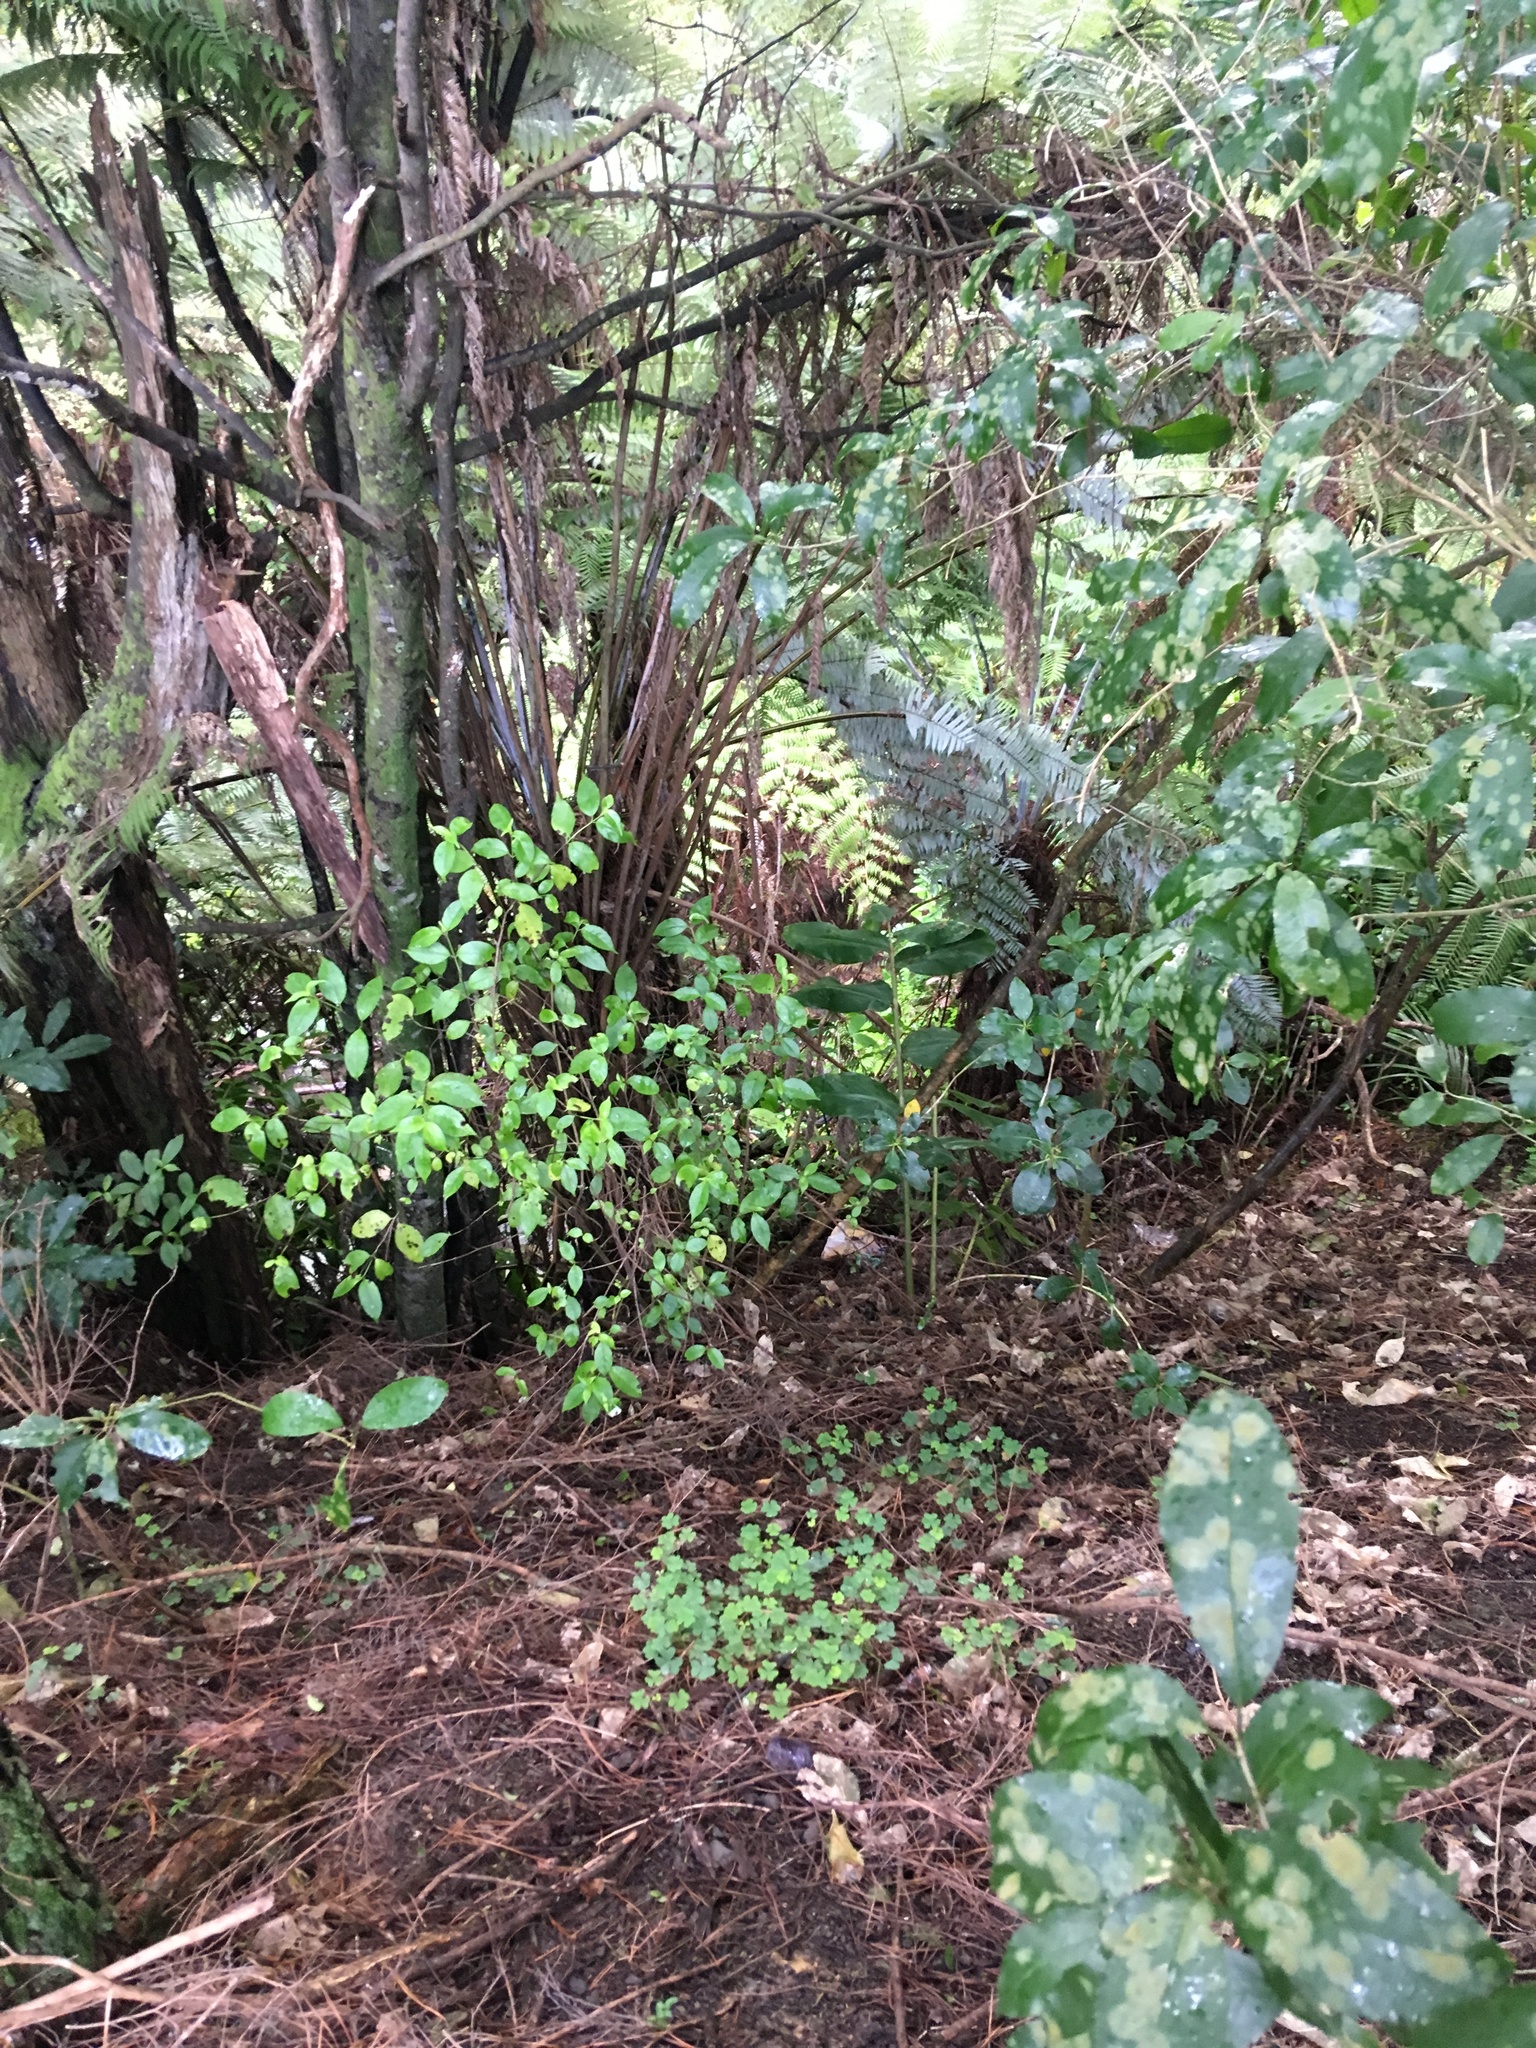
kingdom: Plantae
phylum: Tracheophyta
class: Magnoliopsida
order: Gentianales
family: Loganiaceae
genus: Geniostoma
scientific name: Geniostoma ligustrifolium
